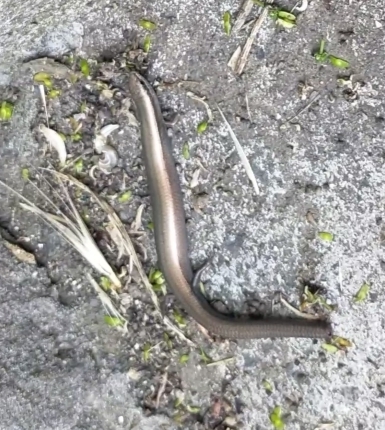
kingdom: Animalia
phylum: Chordata
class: Squamata
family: Scincidae
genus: Ablepharus
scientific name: Ablepharus kitaibelii
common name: Juniper skink
